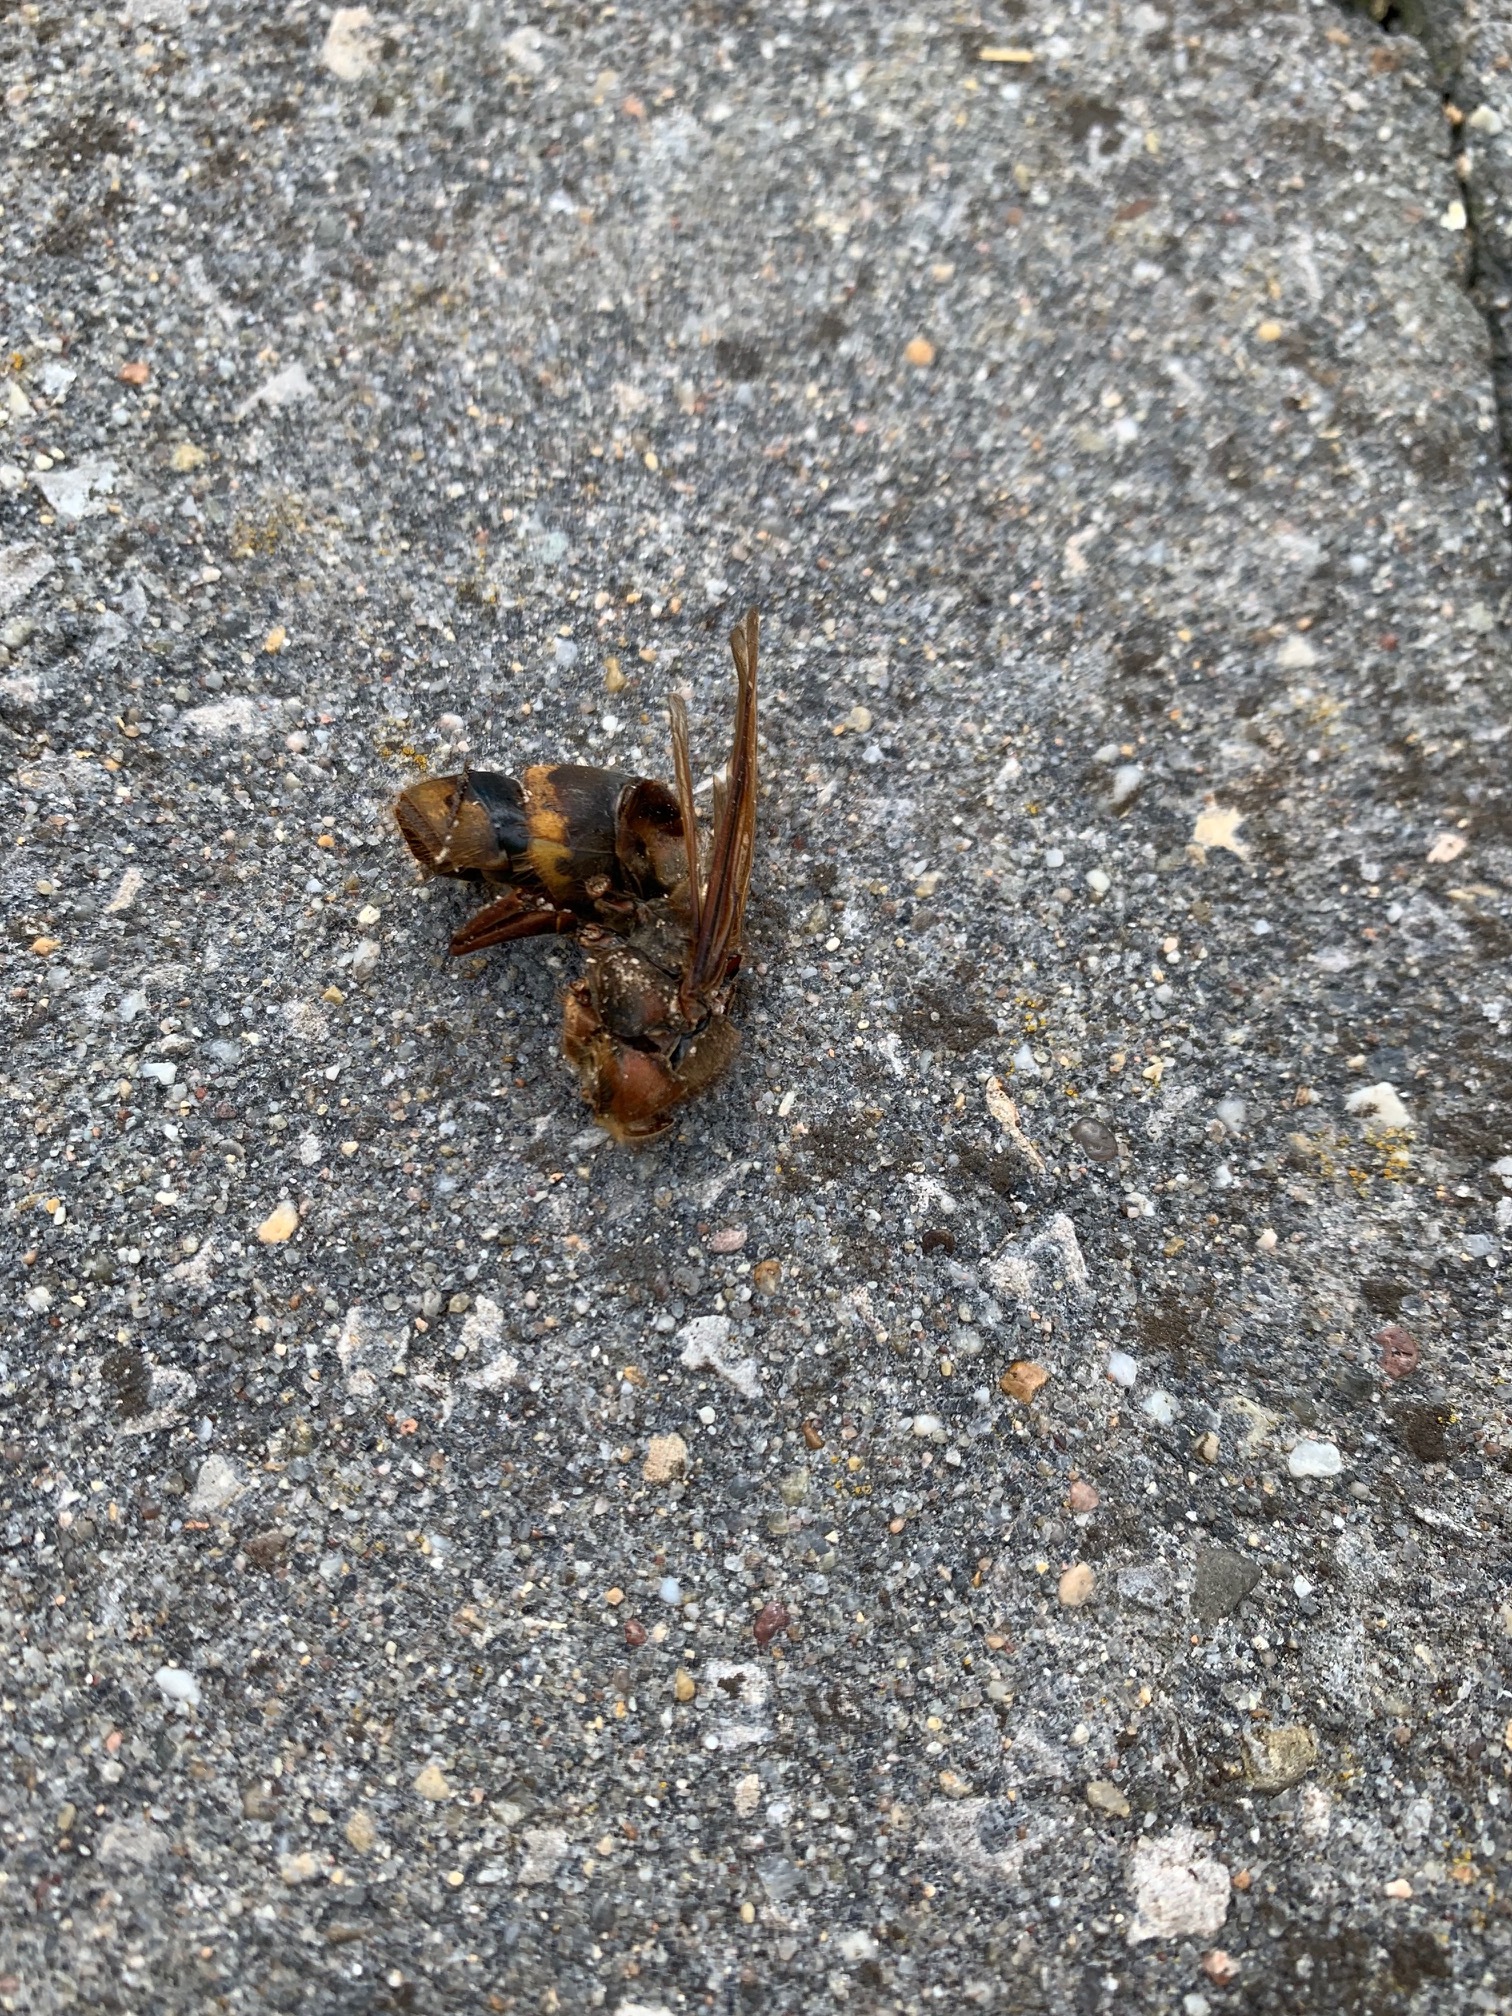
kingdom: Animalia
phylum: Arthropoda
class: Insecta
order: Hymenoptera
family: Vespidae
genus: Vespa
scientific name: Vespa crabro
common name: Hornet
